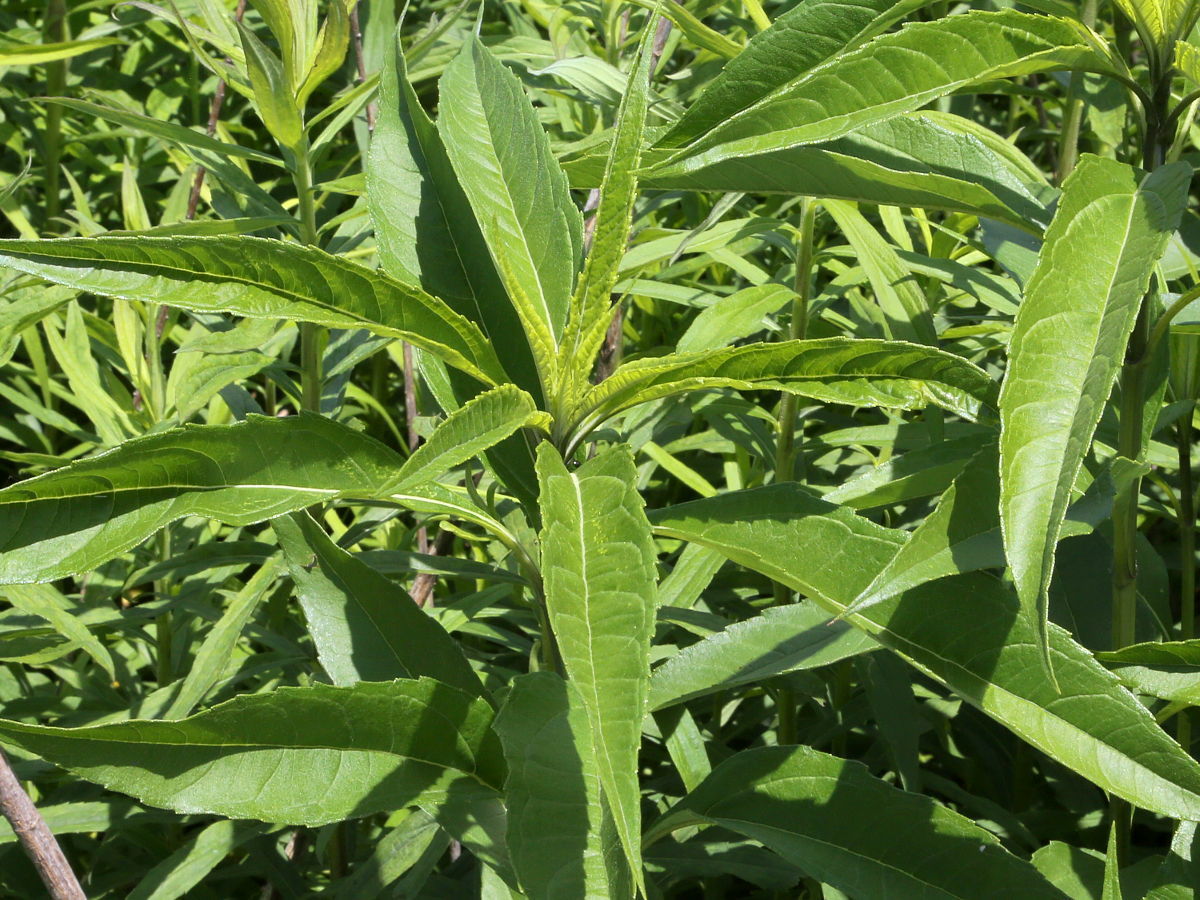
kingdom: Plantae
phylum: Tracheophyta
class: Magnoliopsida
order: Asterales
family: Asteraceae
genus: Helianthus
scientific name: Helianthus grosseserratus
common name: Sawtooth sunflower
